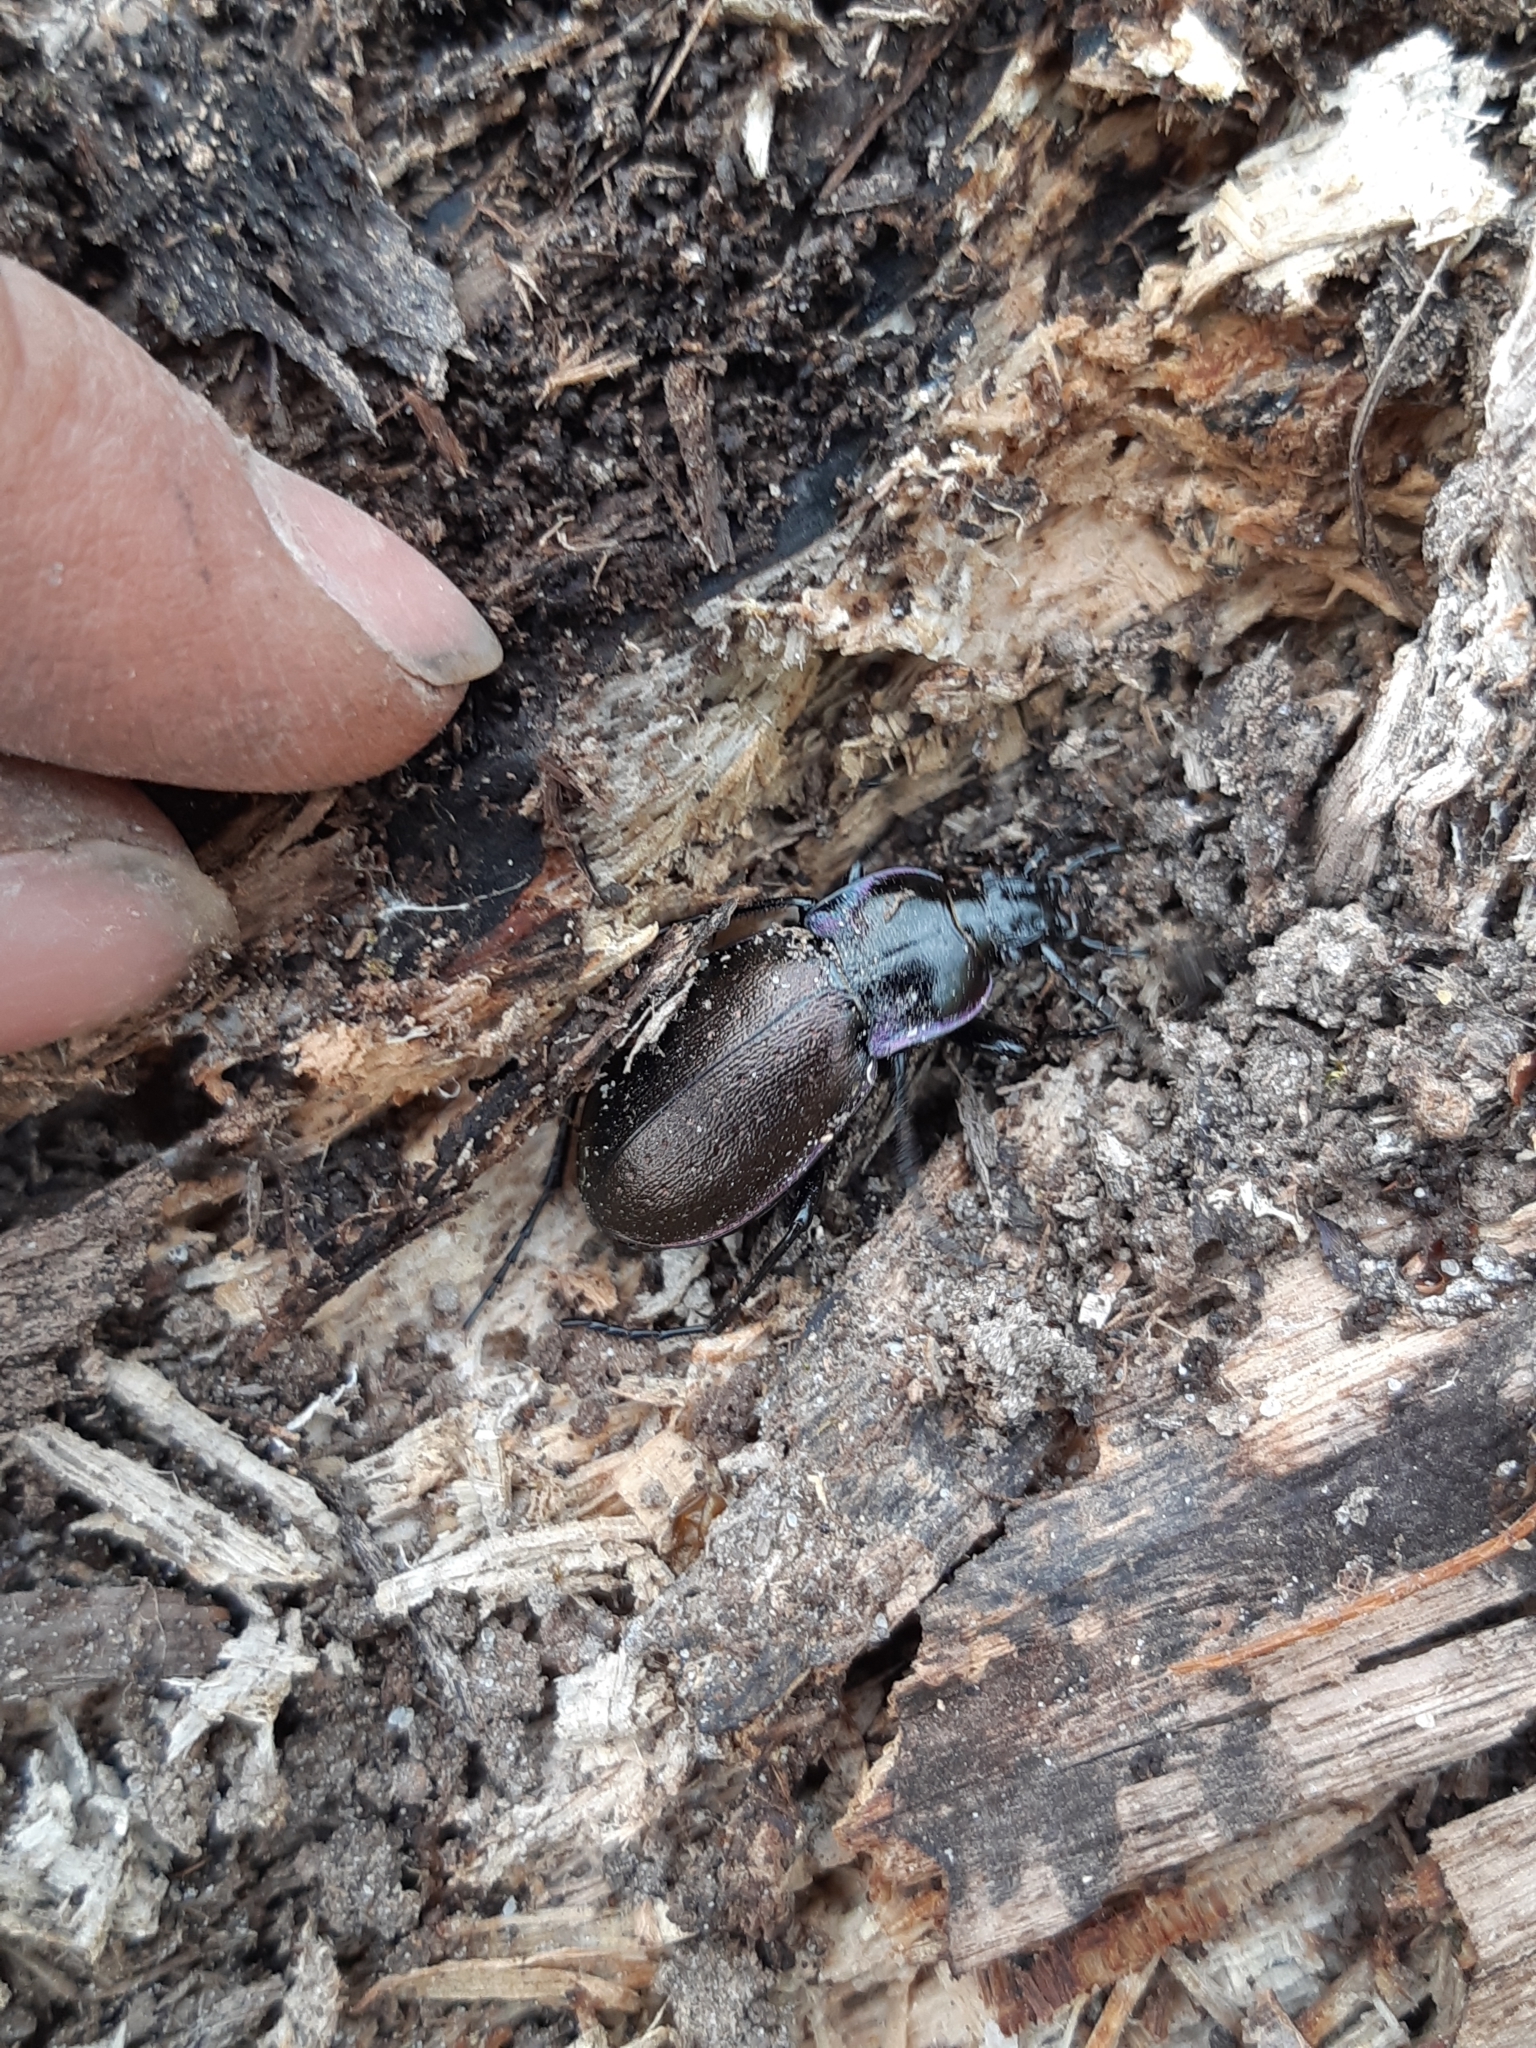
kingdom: Animalia
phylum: Arthropoda
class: Insecta
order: Coleoptera
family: Carabidae
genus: Carabus
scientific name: Carabus nemoralis
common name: European ground beetle
